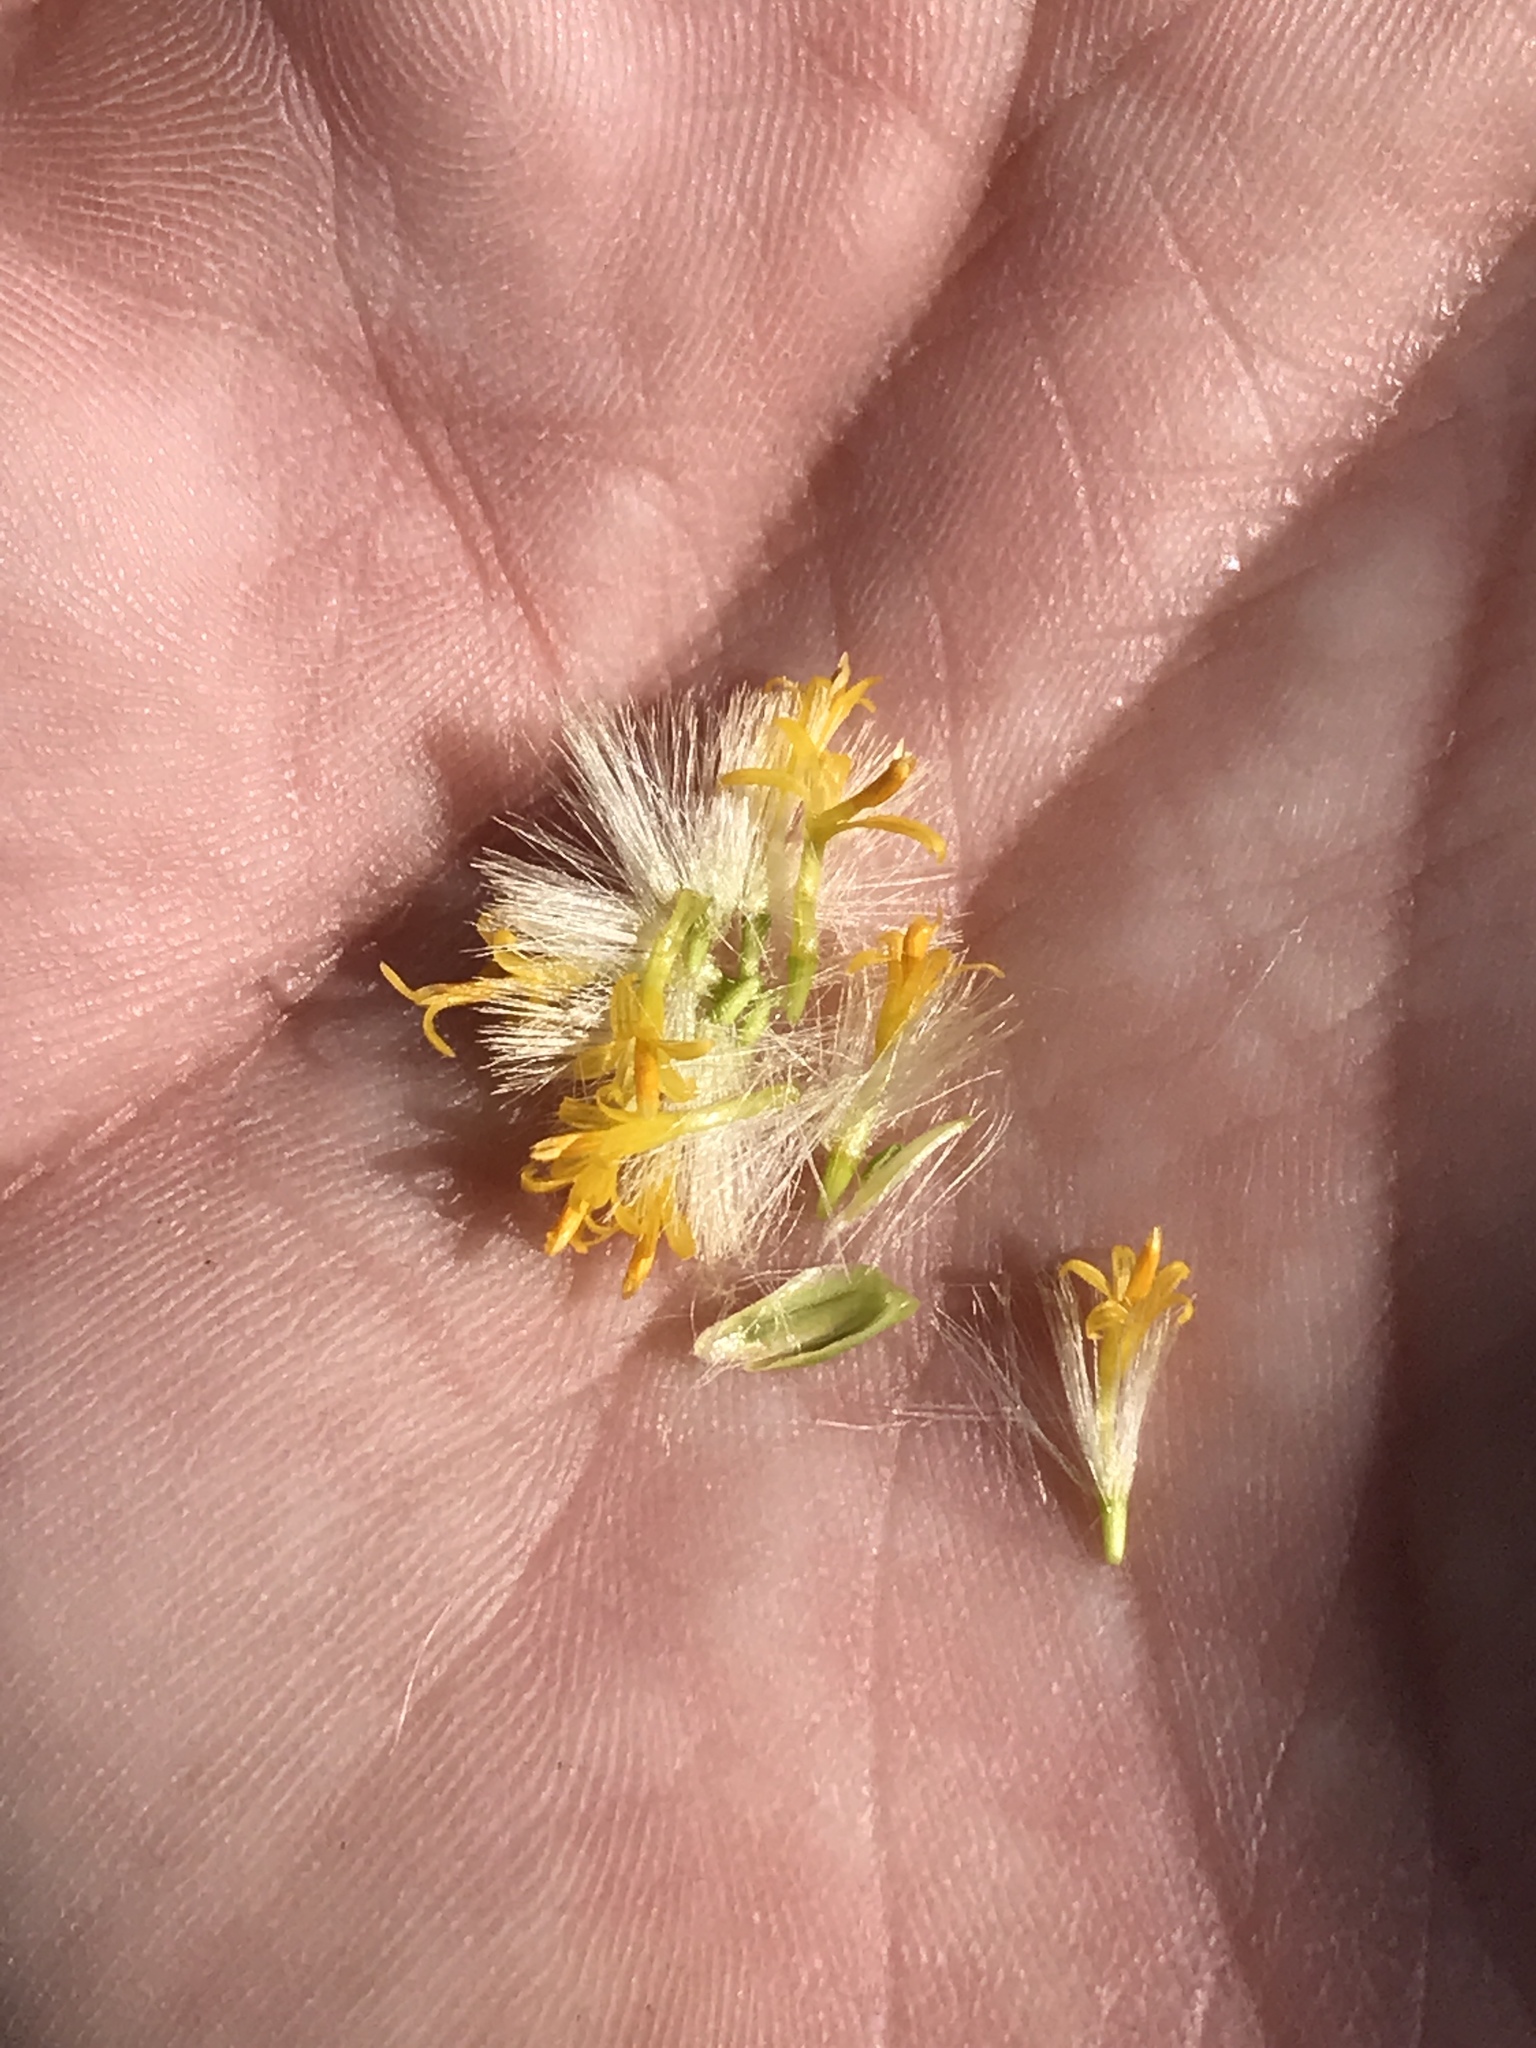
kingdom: Plantae
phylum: Tracheophyta
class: Magnoliopsida
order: Asterales
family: Asteraceae
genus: Lepidospartum
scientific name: Lepidospartum squamatum
